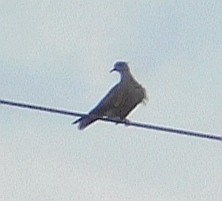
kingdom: Animalia
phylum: Chordata
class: Aves
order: Columbiformes
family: Columbidae
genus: Streptopelia
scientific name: Streptopelia decaocto
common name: Eurasian collared dove
